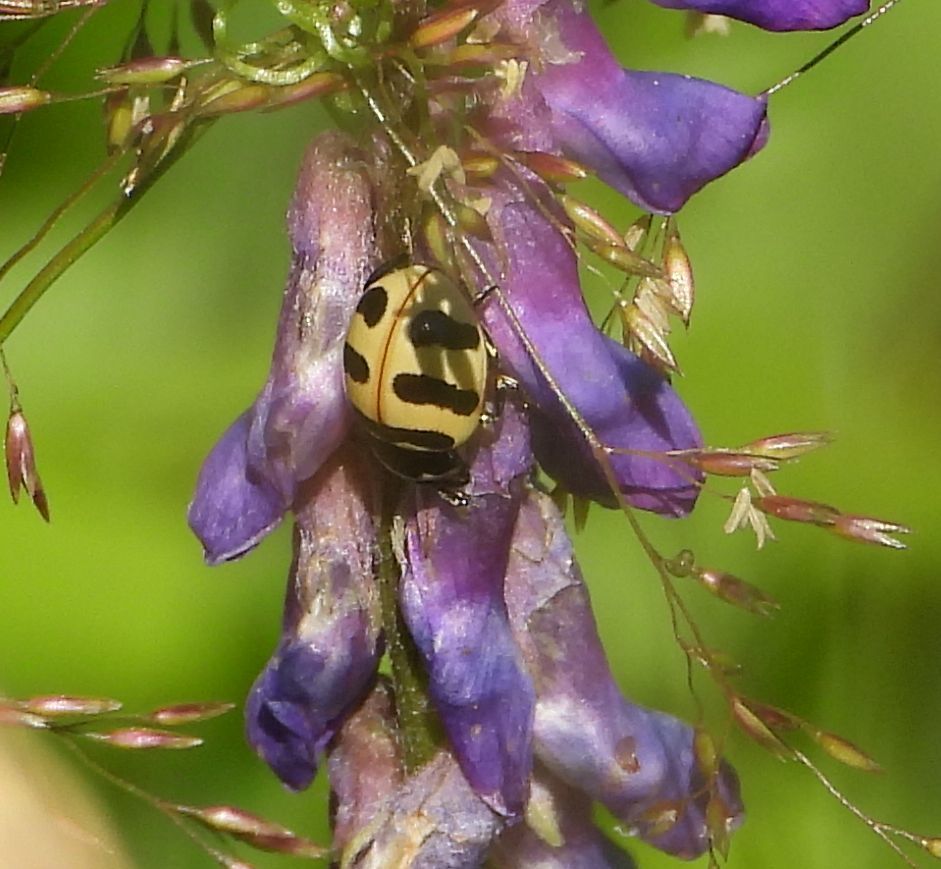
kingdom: Animalia
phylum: Arthropoda
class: Insecta
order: Coleoptera
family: Coccinellidae
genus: Coccinella
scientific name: Coccinella trifasciata
